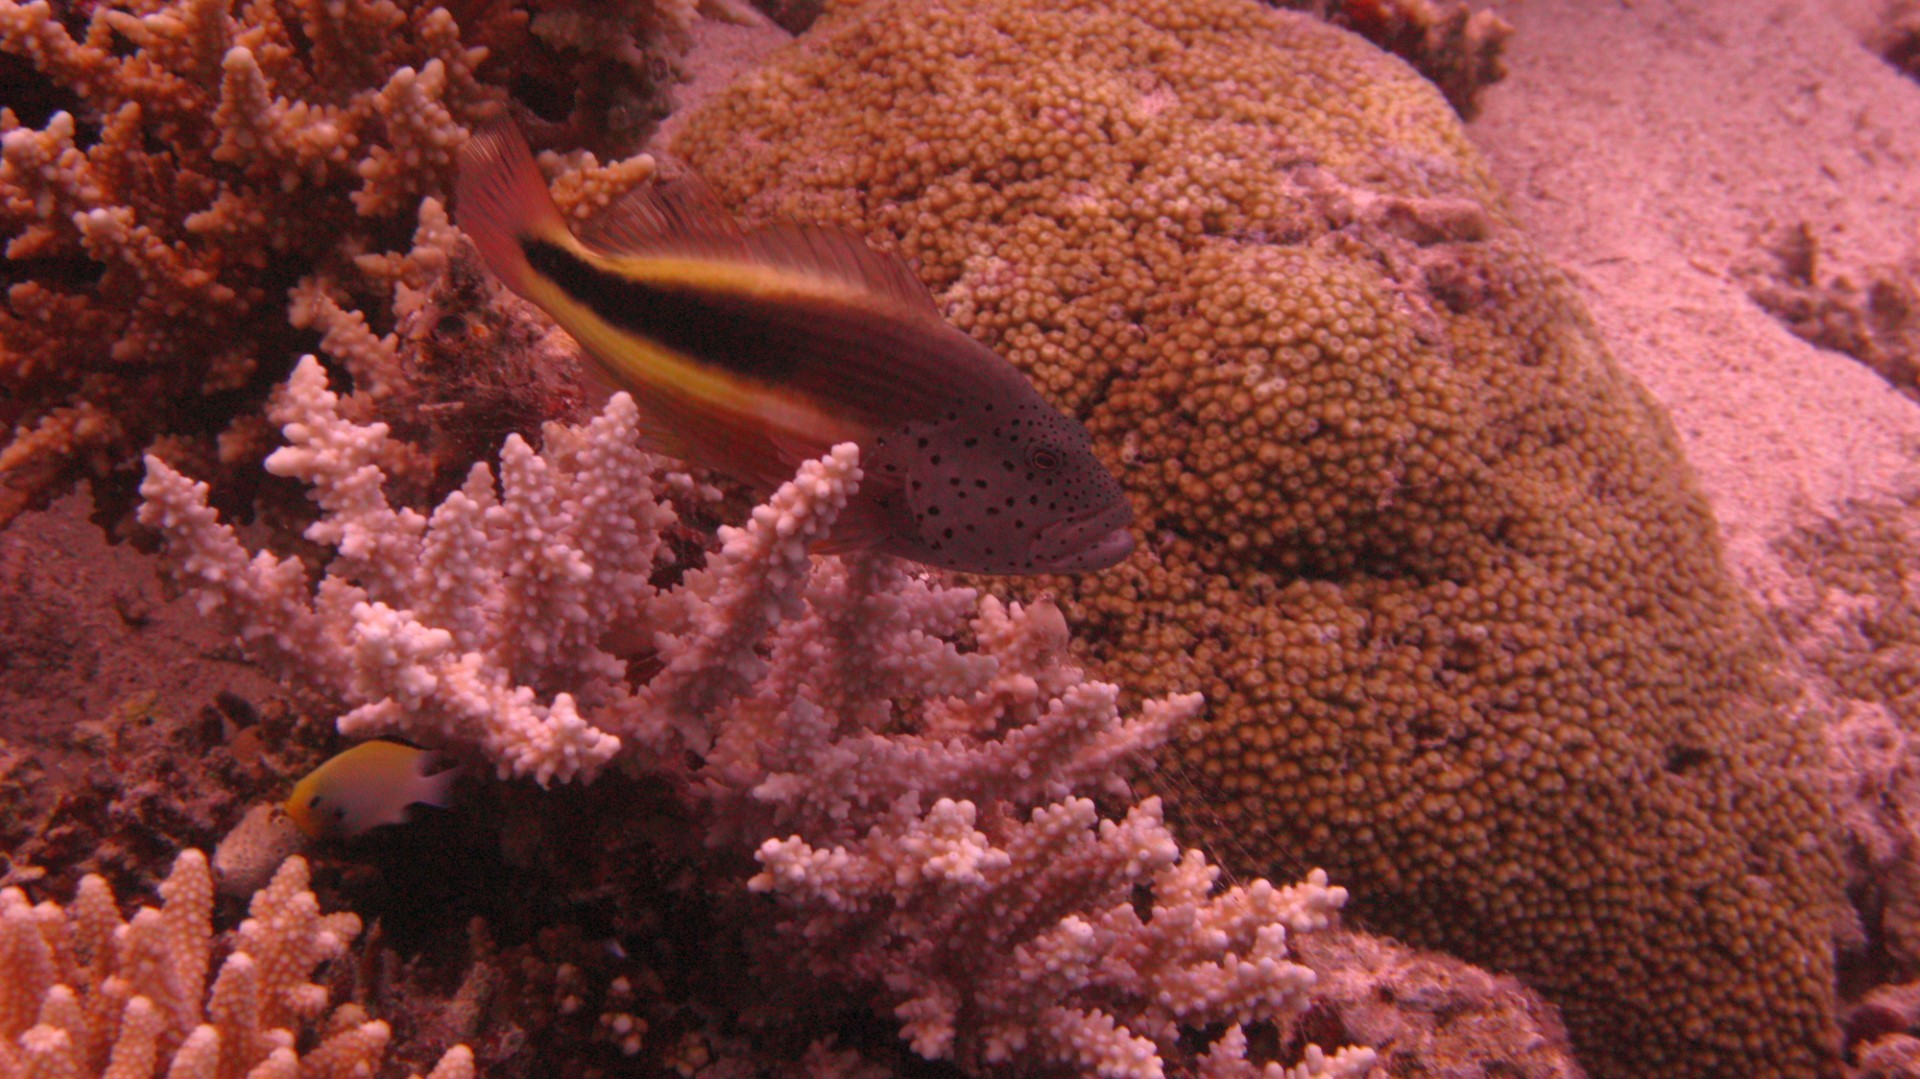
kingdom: Animalia
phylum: Chordata
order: Perciformes
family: Cirrhitidae
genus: Paracirrhites
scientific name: Paracirrhites forsteri
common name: Freckled hawkfish
